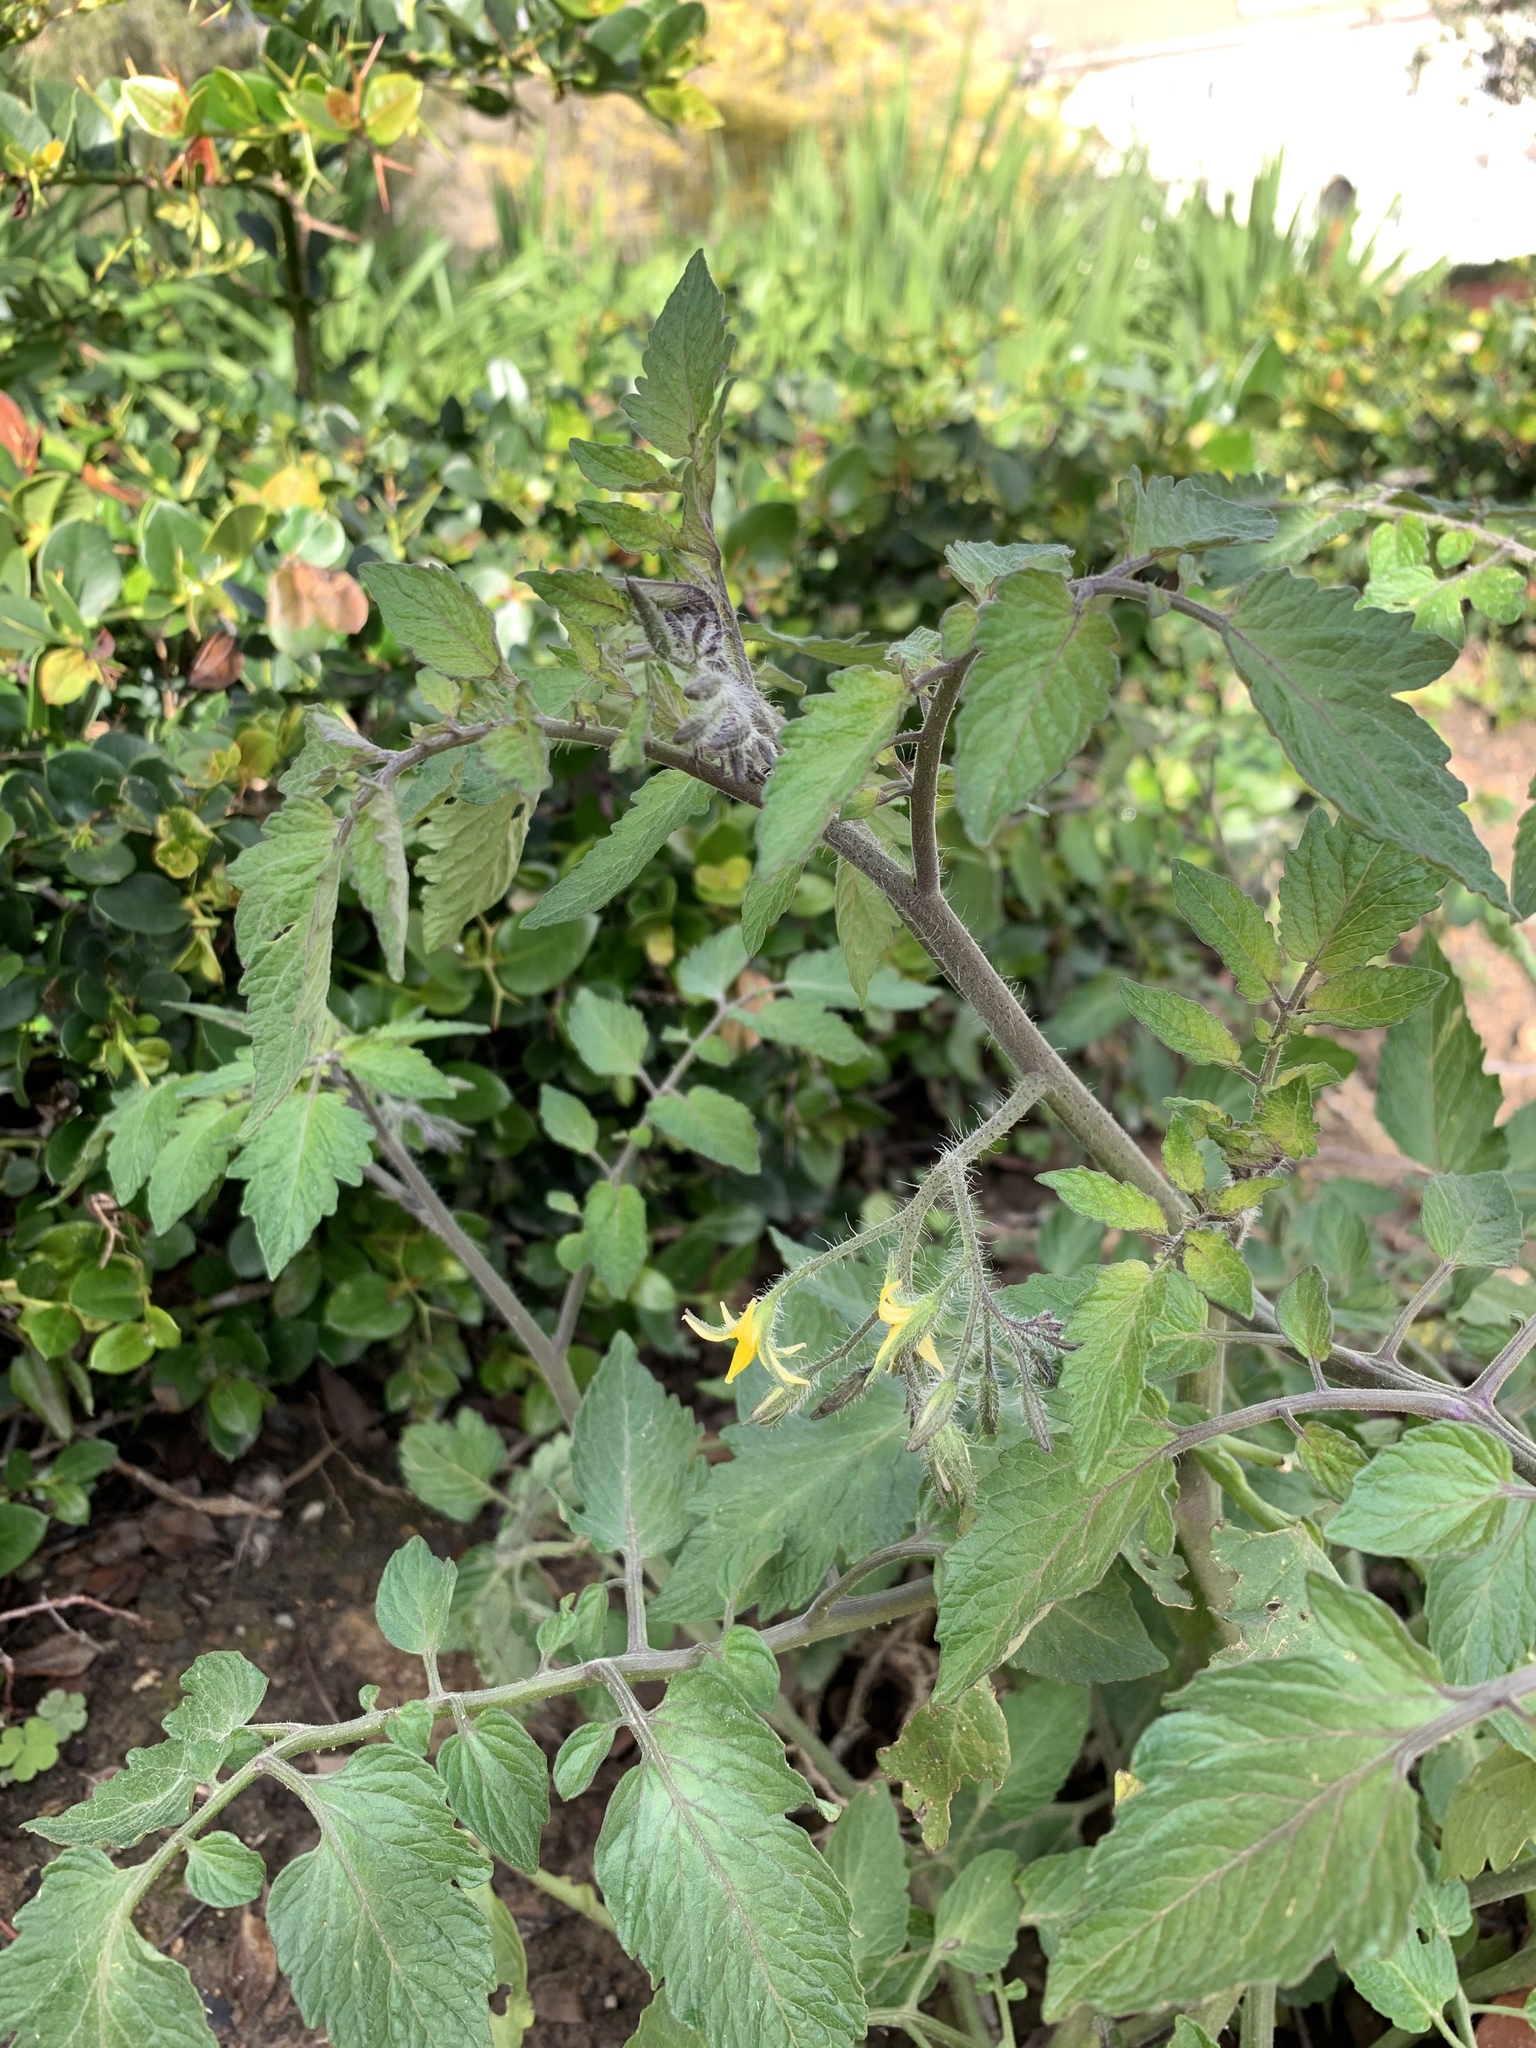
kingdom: Plantae
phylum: Tracheophyta
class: Magnoliopsida
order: Solanales
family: Solanaceae
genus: Solanum
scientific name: Solanum lycopersicum
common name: Garden tomato
